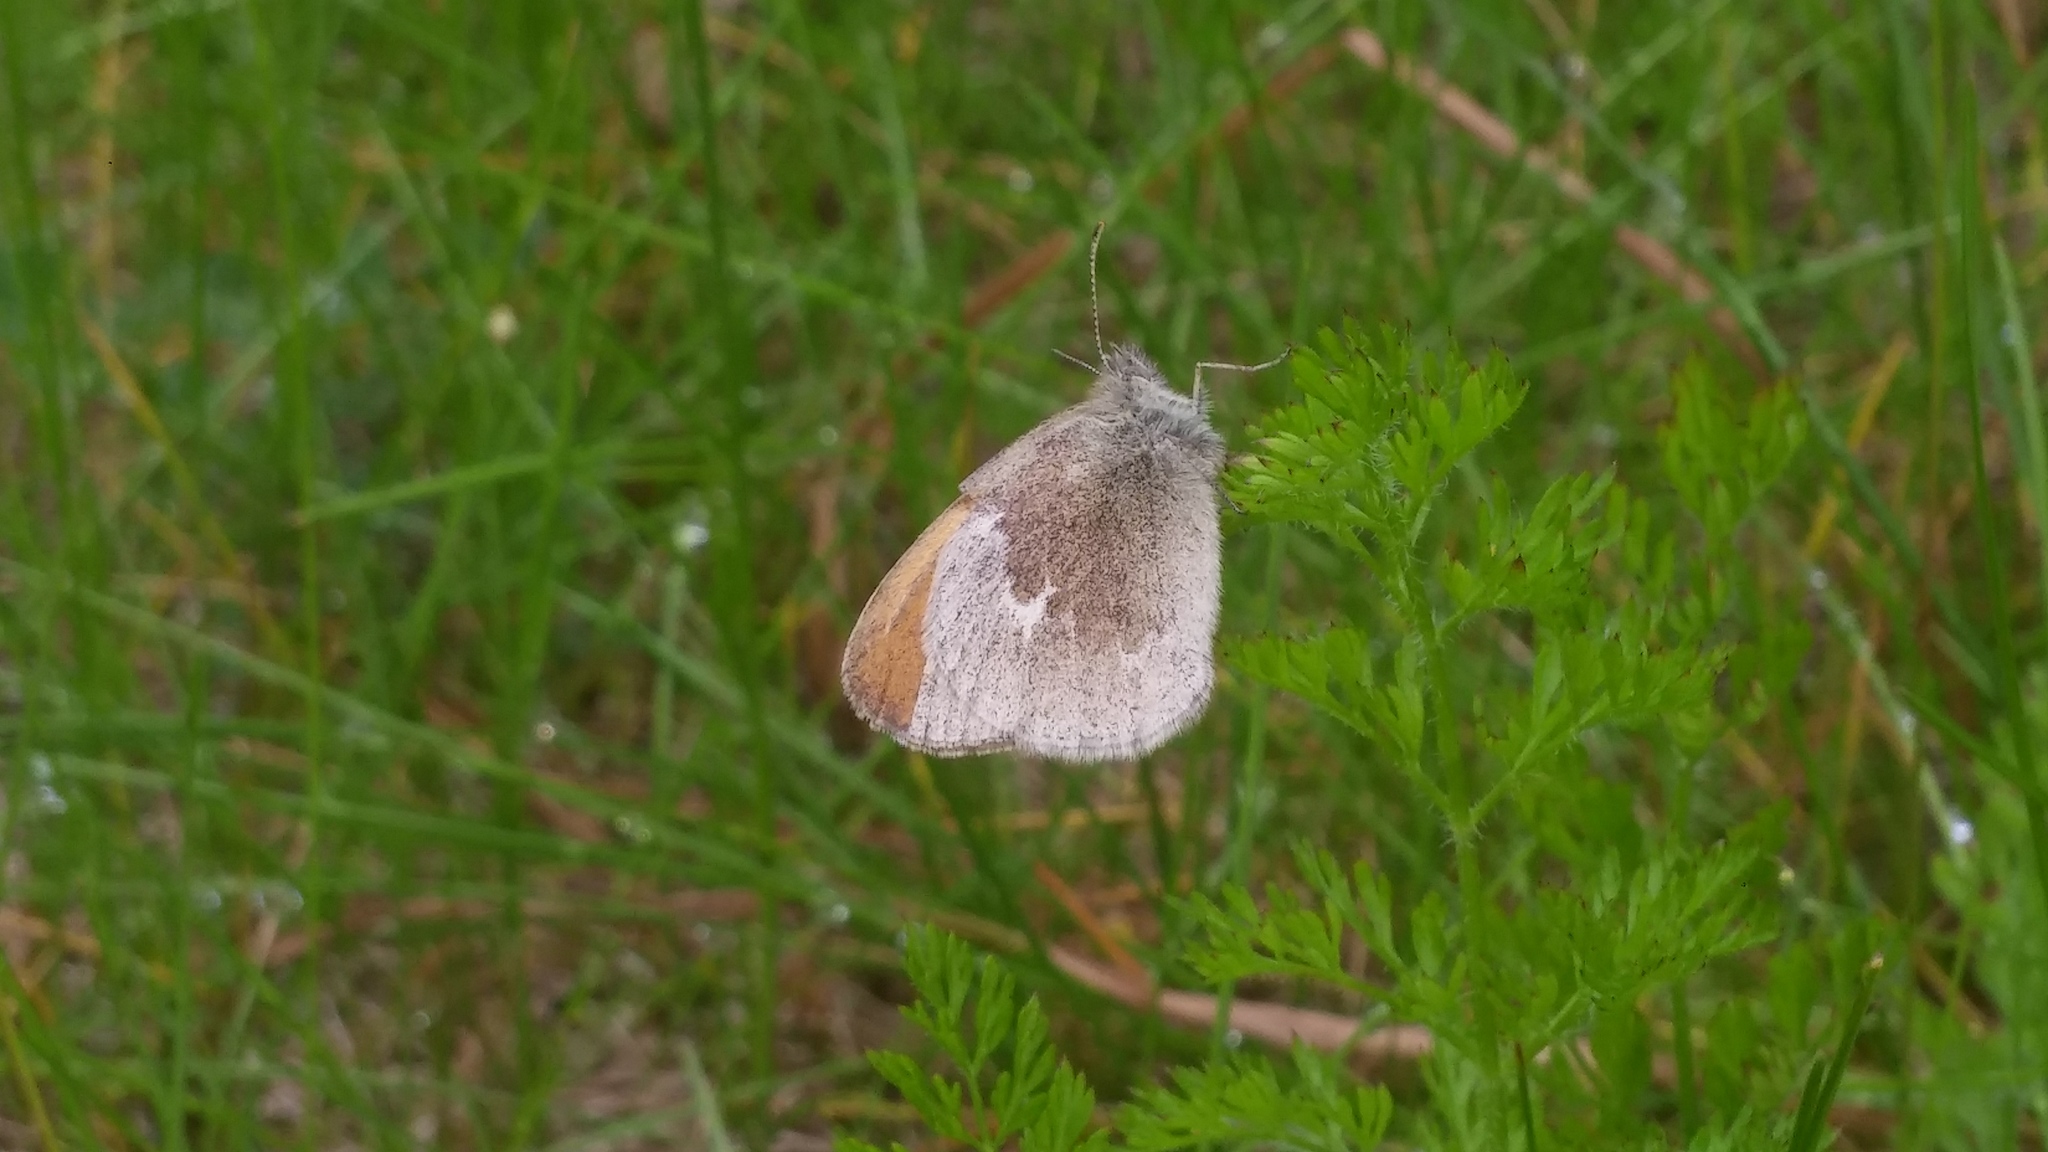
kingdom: Animalia
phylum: Arthropoda
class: Insecta
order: Lepidoptera
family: Nymphalidae
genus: Coenonympha
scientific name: Coenonympha california
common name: Common ringlet
